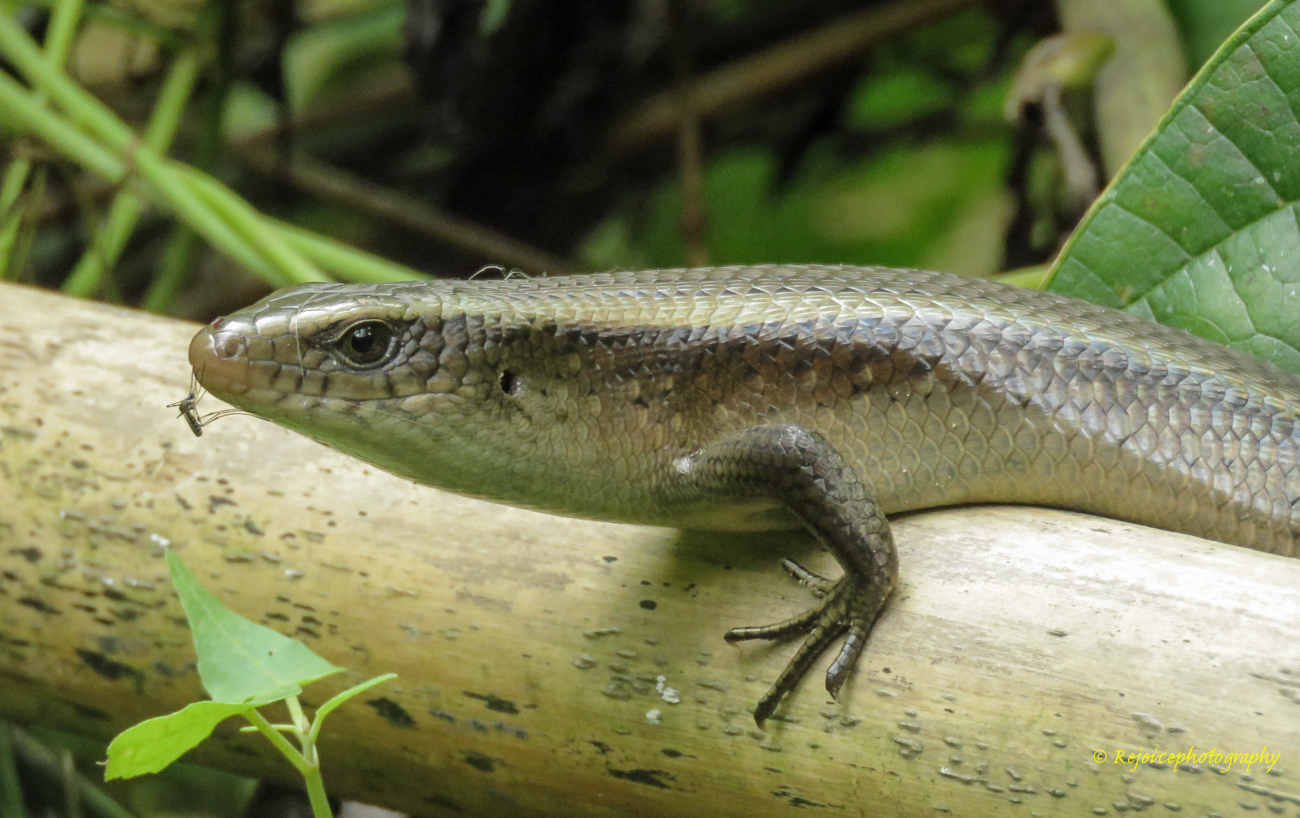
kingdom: Animalia
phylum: Chordata
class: Squamata
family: Scincidae
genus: Eutropis
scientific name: Eutropis multifasciata
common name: Common mabuya
